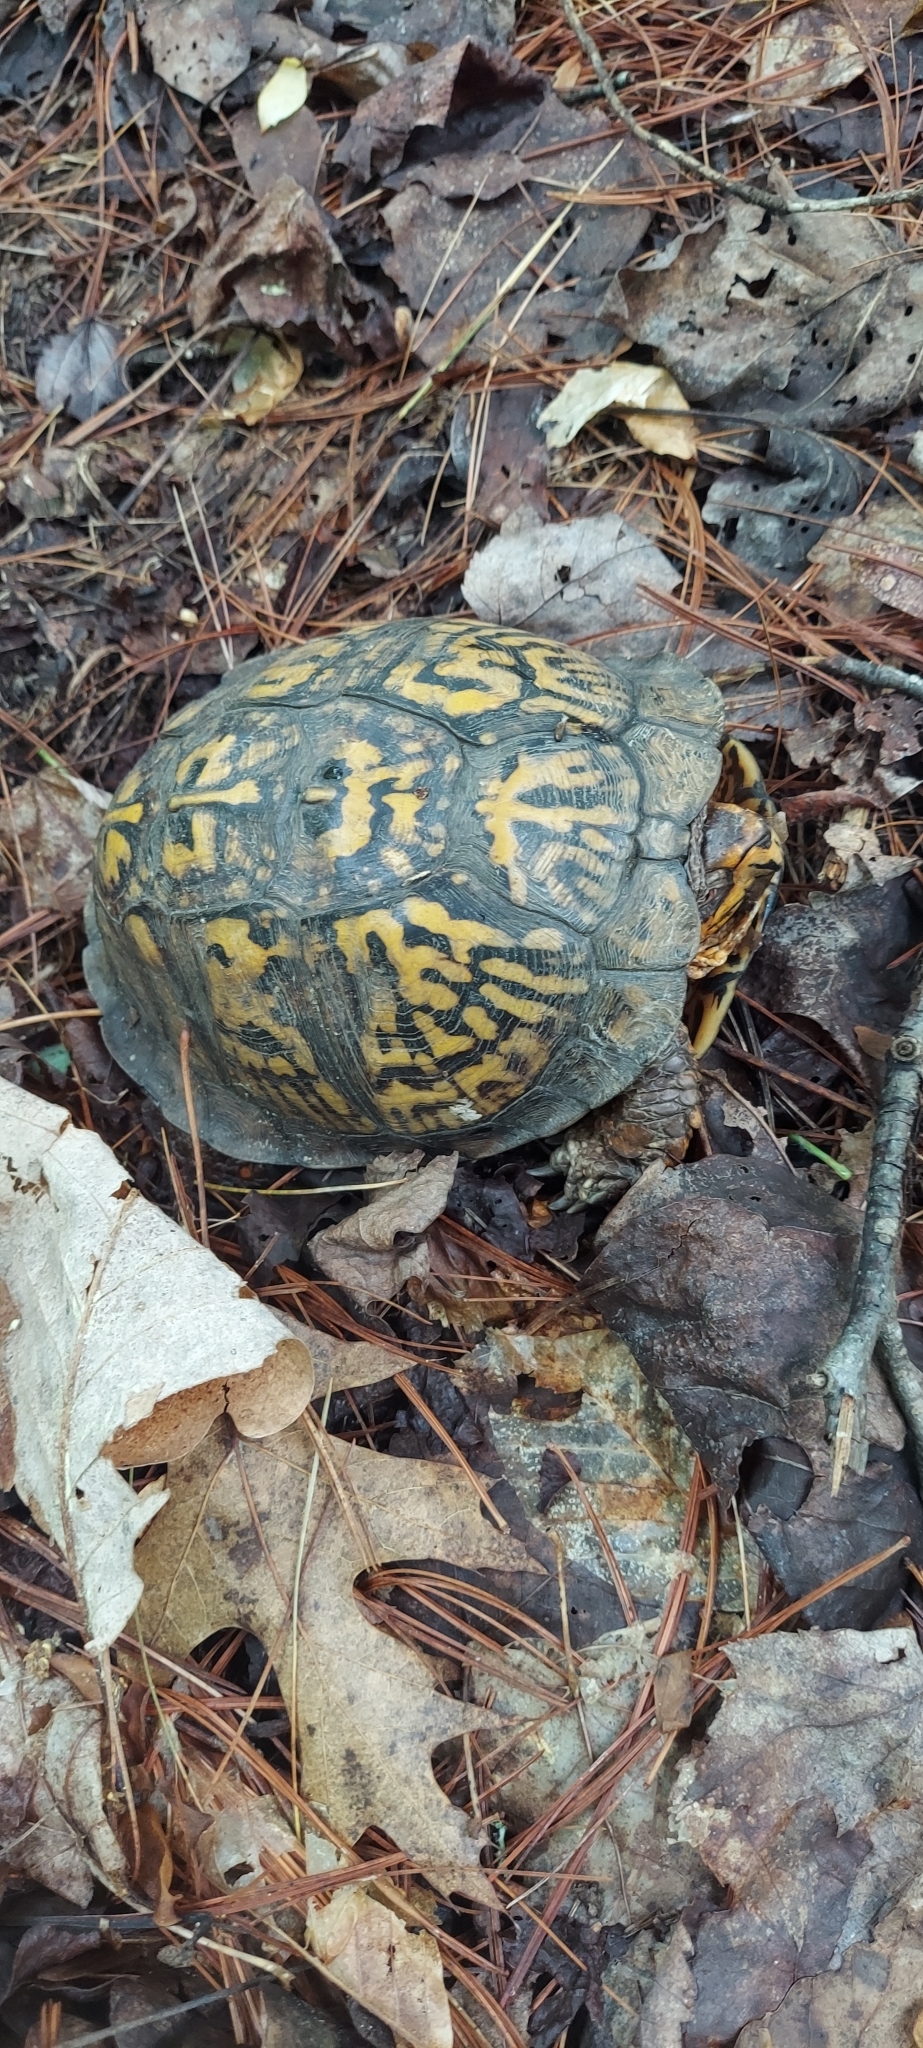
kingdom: Animalia
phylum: Chordata
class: Testudines
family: Emydidae
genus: Terrapene
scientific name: Terrapene carolina
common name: Common box turtle
